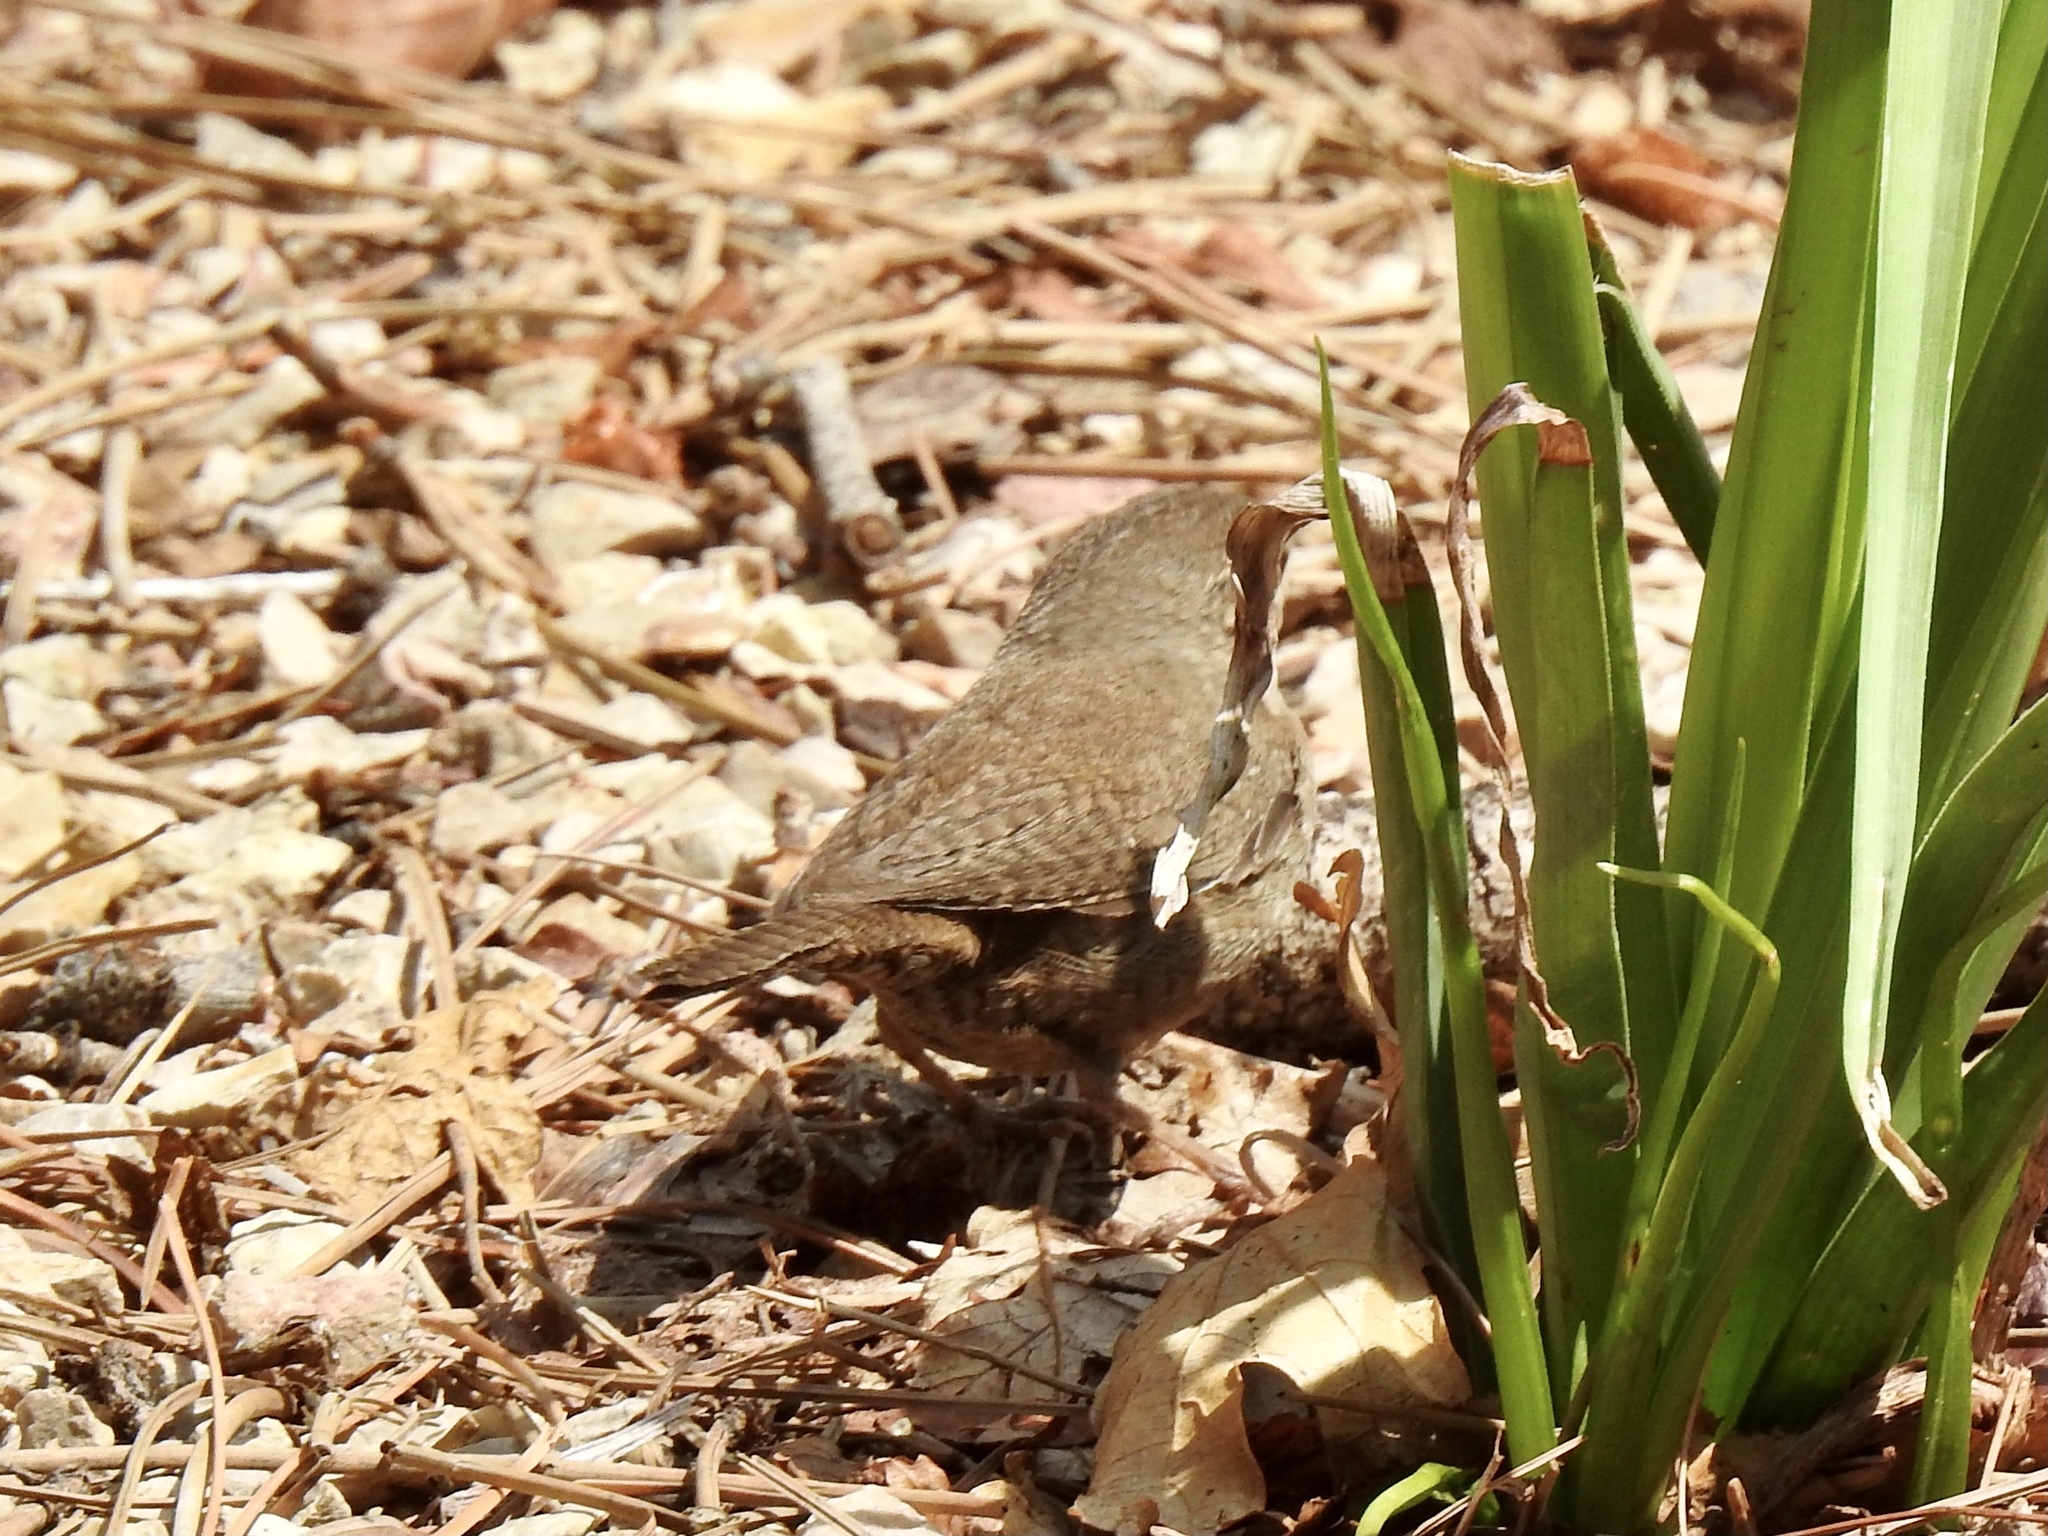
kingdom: Animalia
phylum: Chordata
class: Aves
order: Passeriformes
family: Troglodytidae
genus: Troglodytes
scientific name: Troglodytes aedon
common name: House wren
